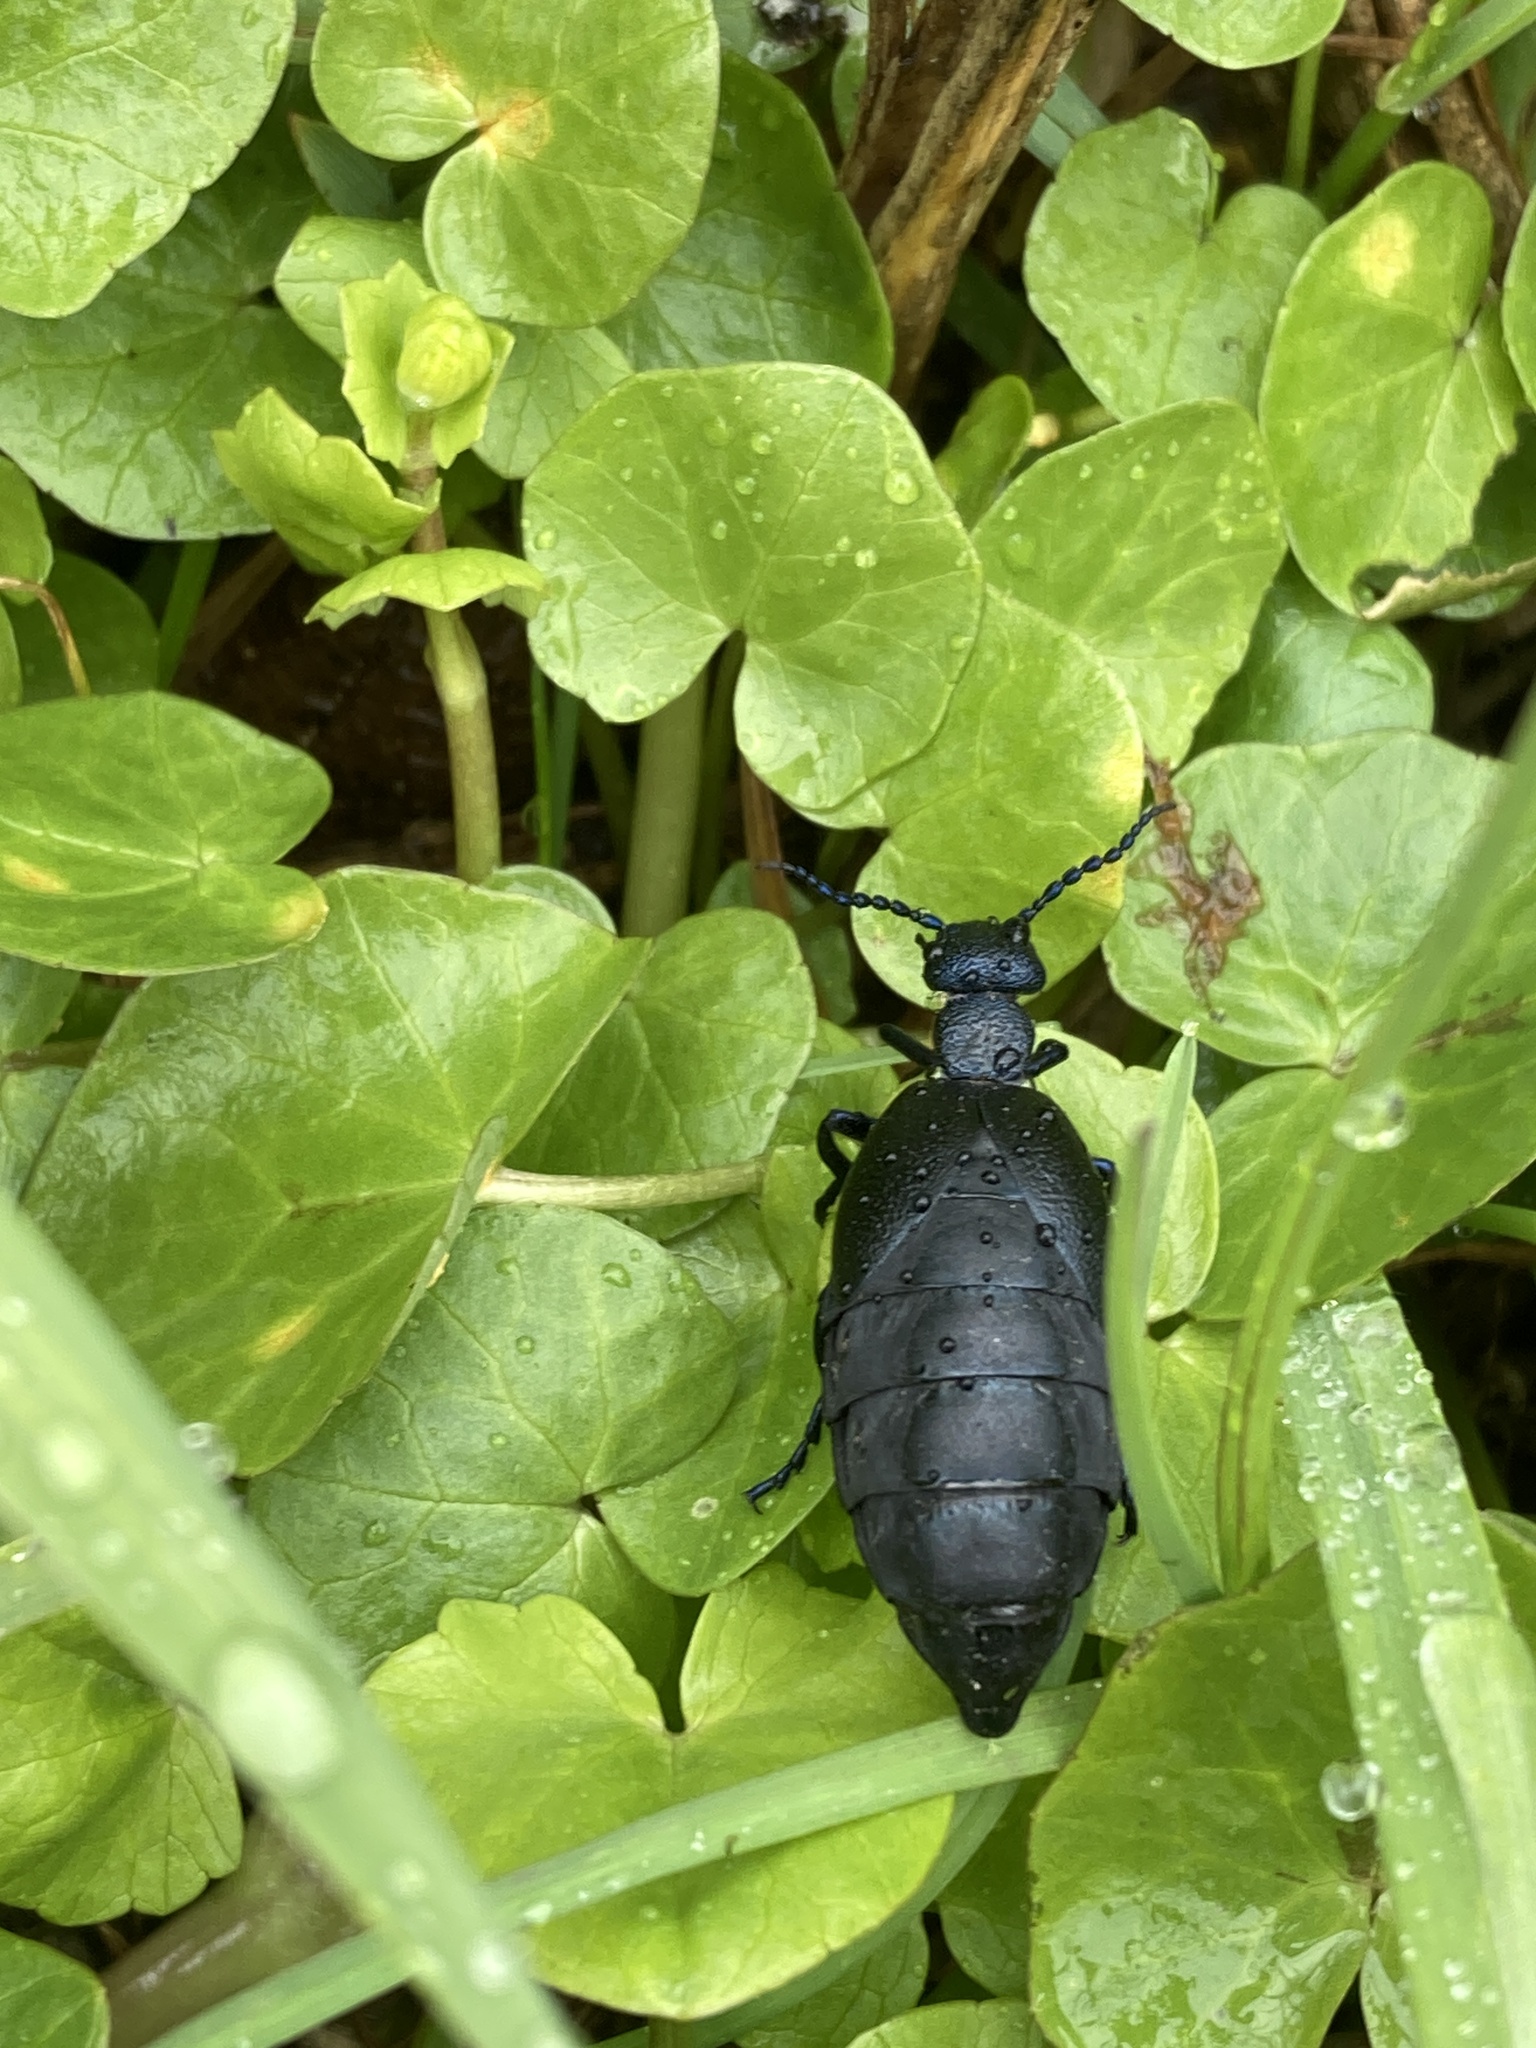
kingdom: Animalia
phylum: Arthropoda
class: Insecta
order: Coleoptera
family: Meloidae
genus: Meloe
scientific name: Meloe proscarabaeus
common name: Black oil-beetle
